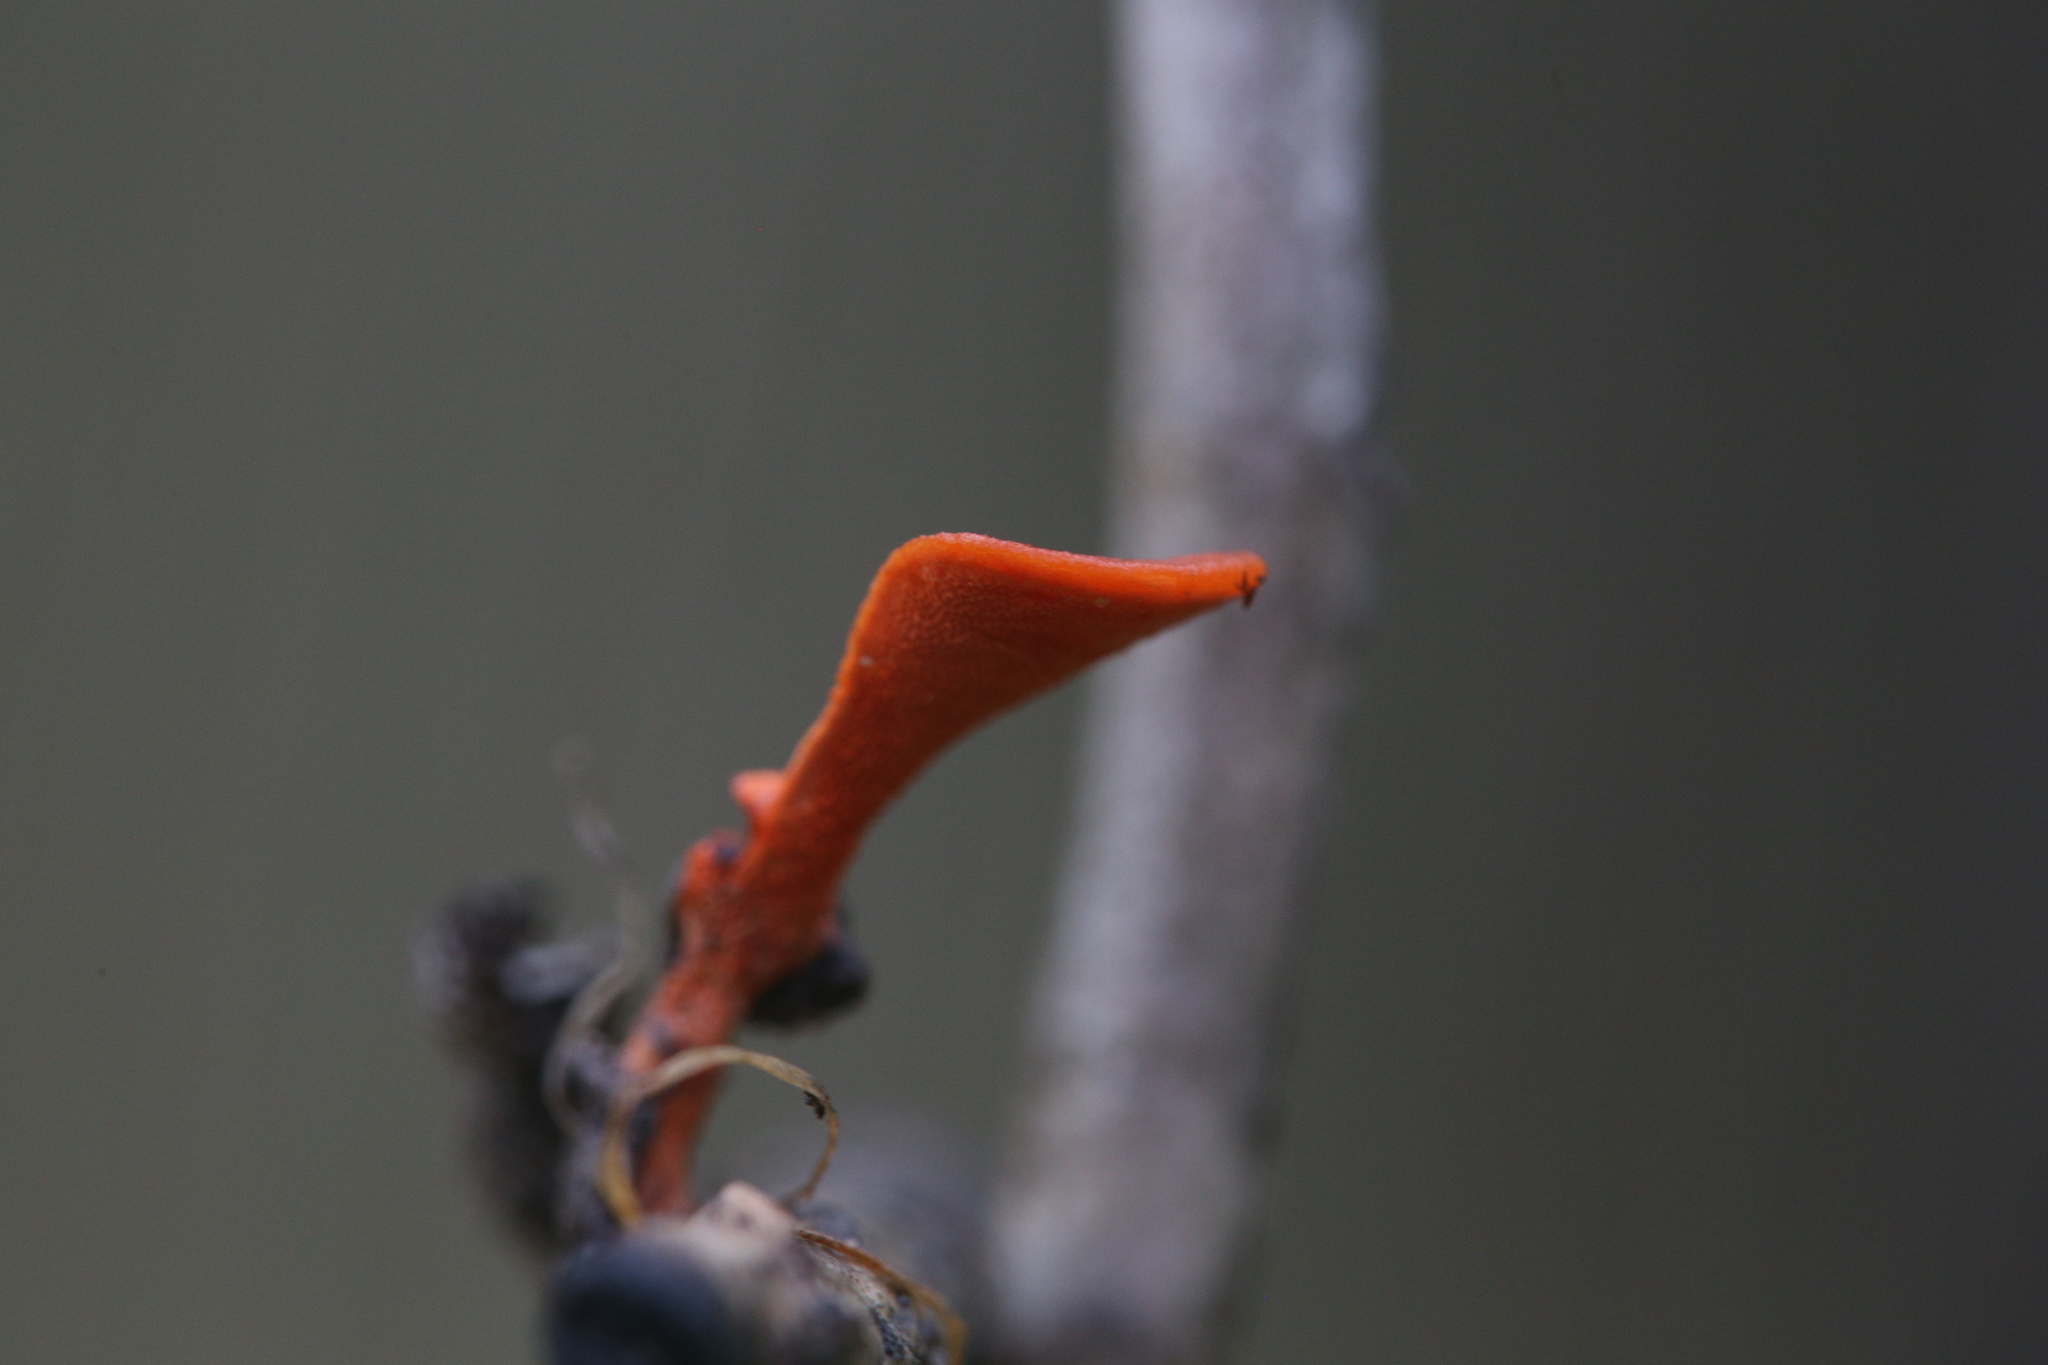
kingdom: Fungi
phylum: Basidiomycota
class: Agaricomycetes
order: Polyporales
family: Polyporaceae
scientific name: Polyporaceae
